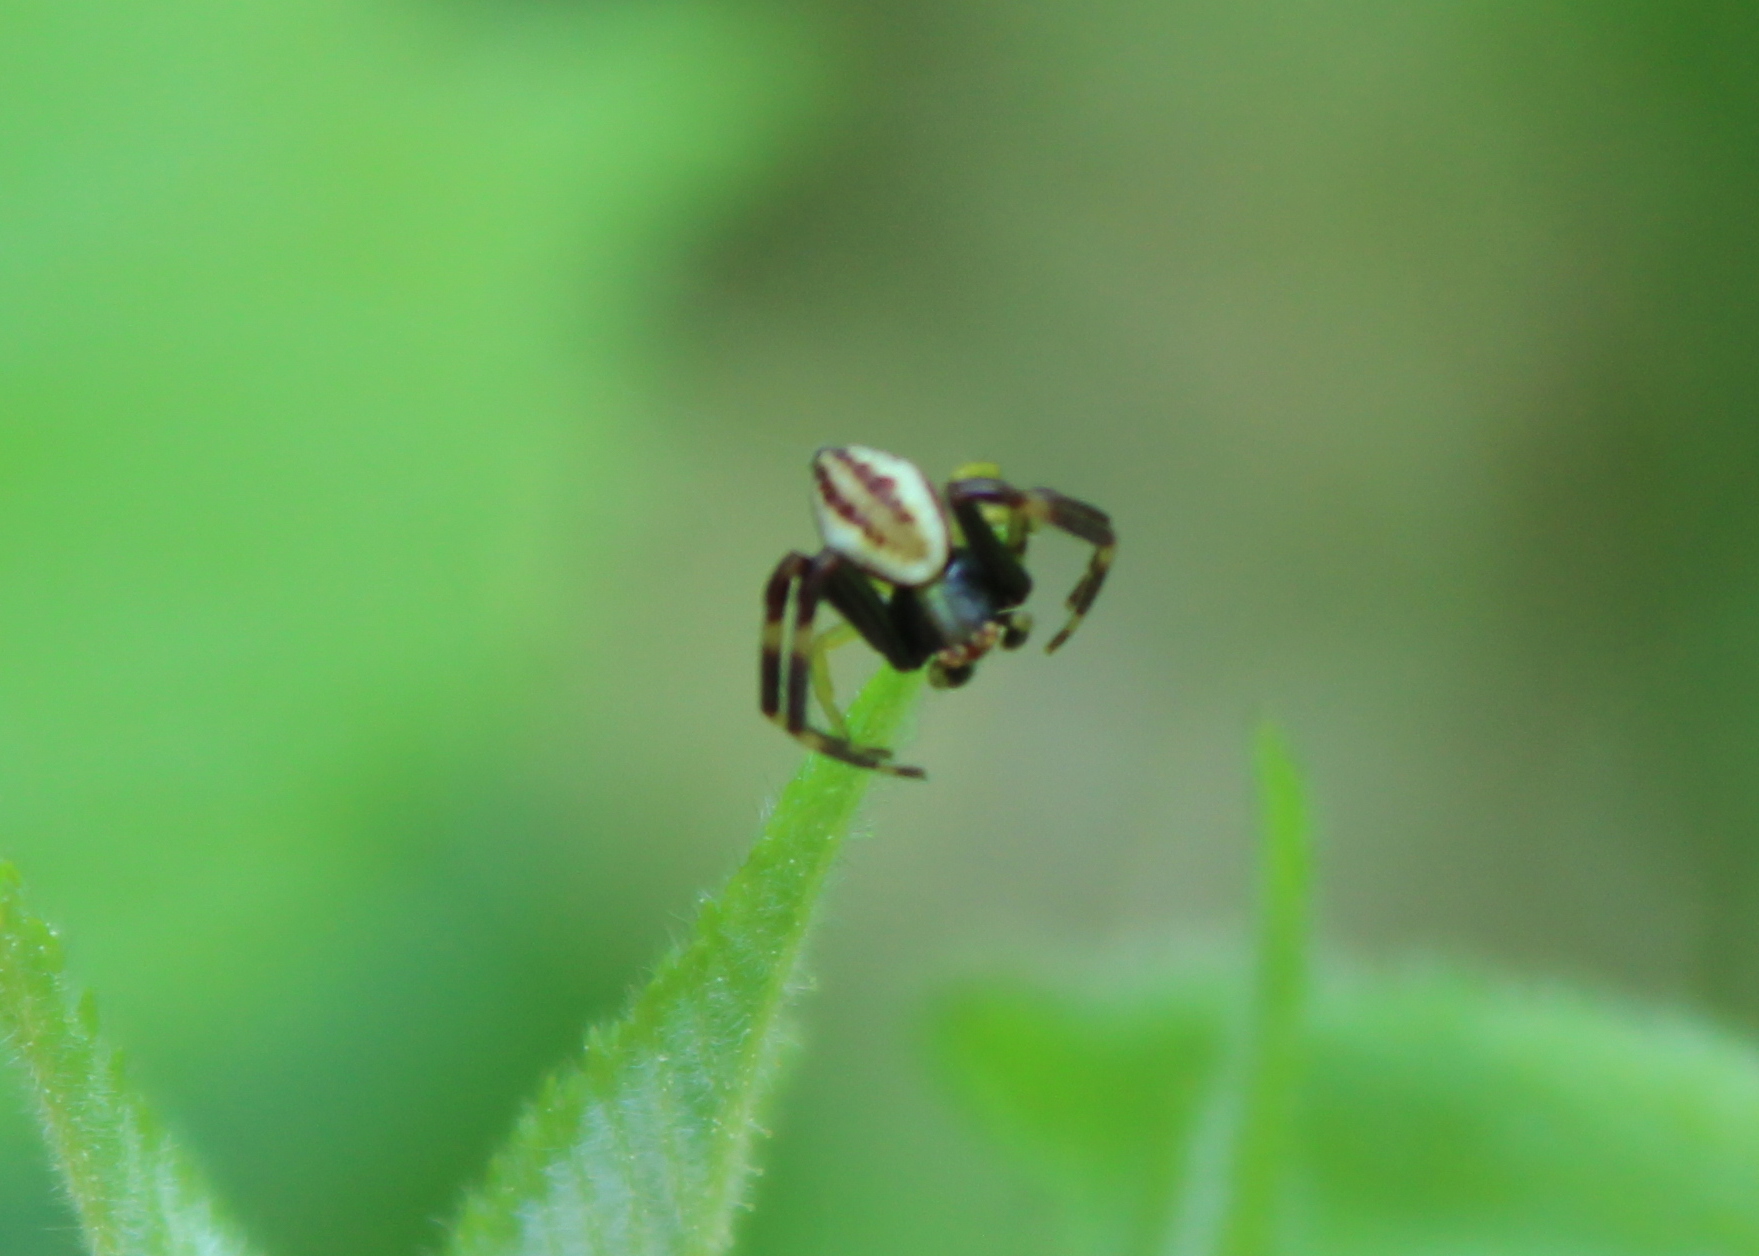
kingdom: Animalia
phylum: Arthropoda
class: Arachnida
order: Araneae
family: Thomisidae
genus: Misumena
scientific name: Misumena vatia
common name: Goldenrod crab spider
